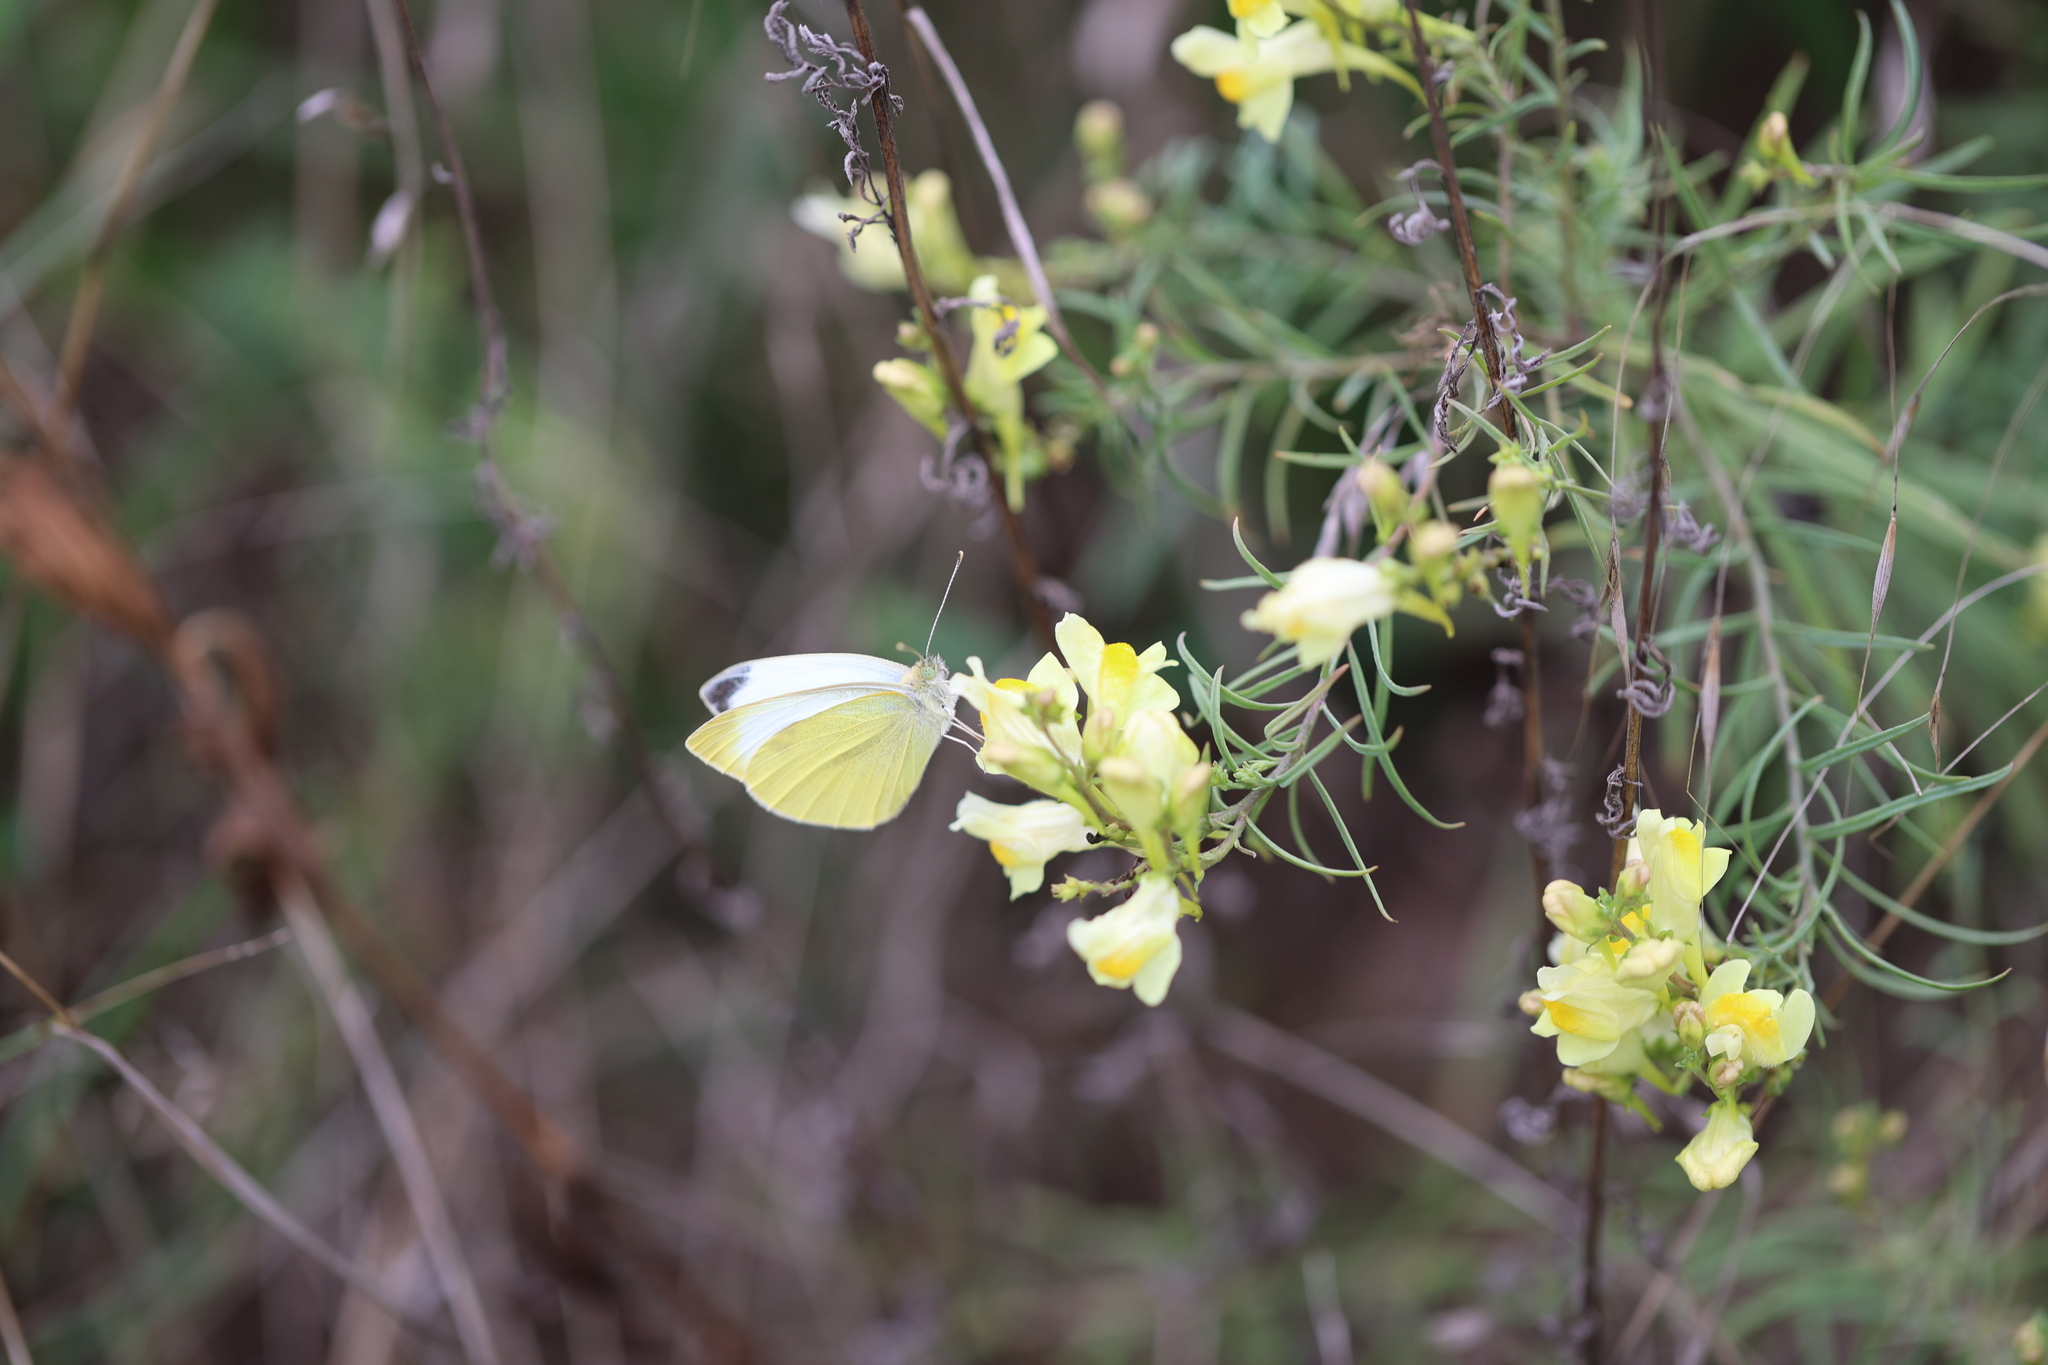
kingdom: Animalia
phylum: Arthropoda
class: Insecta
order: Lepidoptera
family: Pieridae
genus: Pieris
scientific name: Pieris rapae
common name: Small white
